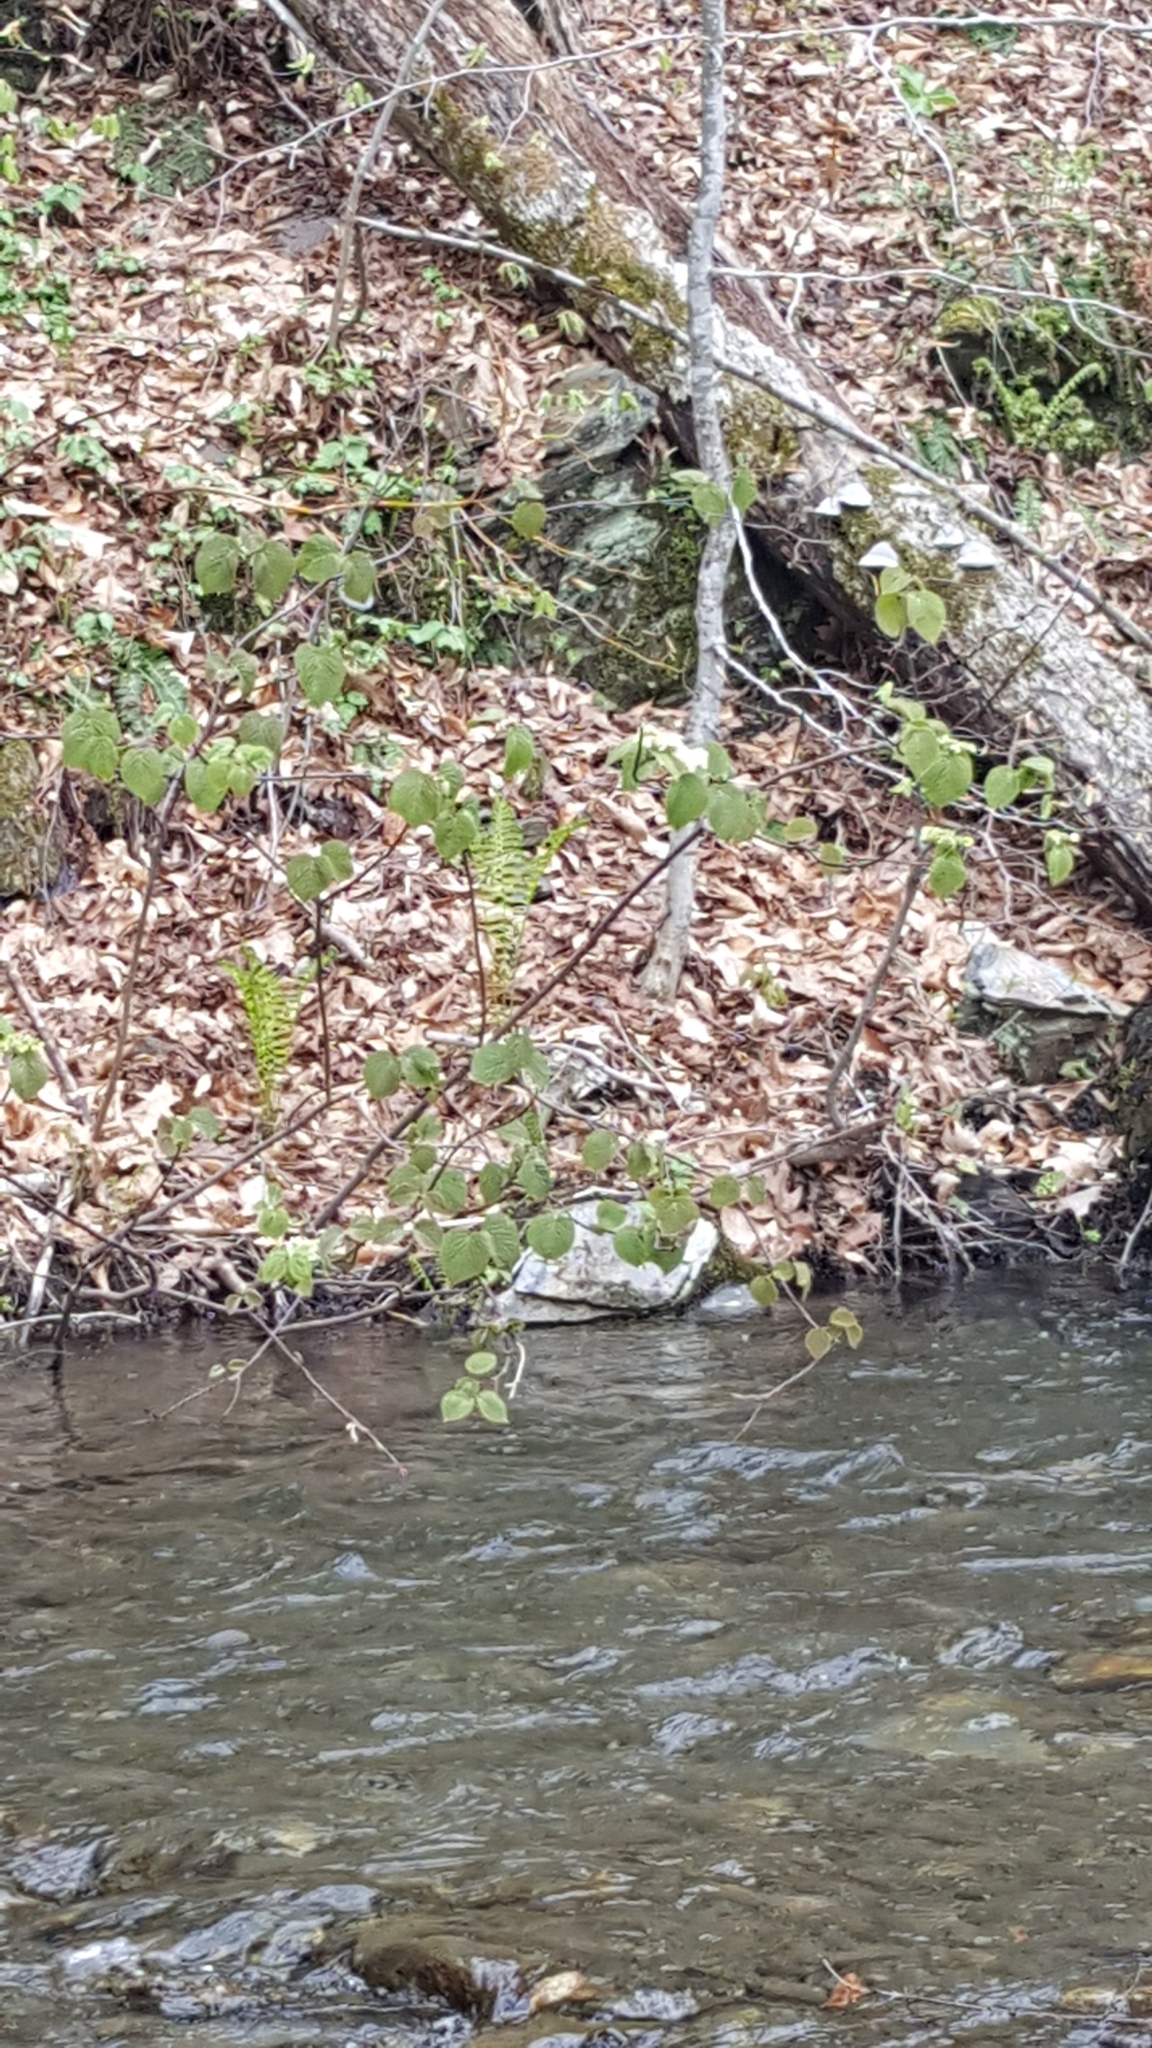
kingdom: Plantae
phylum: Tracheophyta
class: Magnoliopsida
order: Dipsacales
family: Viburnaceae
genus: Viburnum
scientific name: Viburnum lantanoides
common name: Hobblebush
